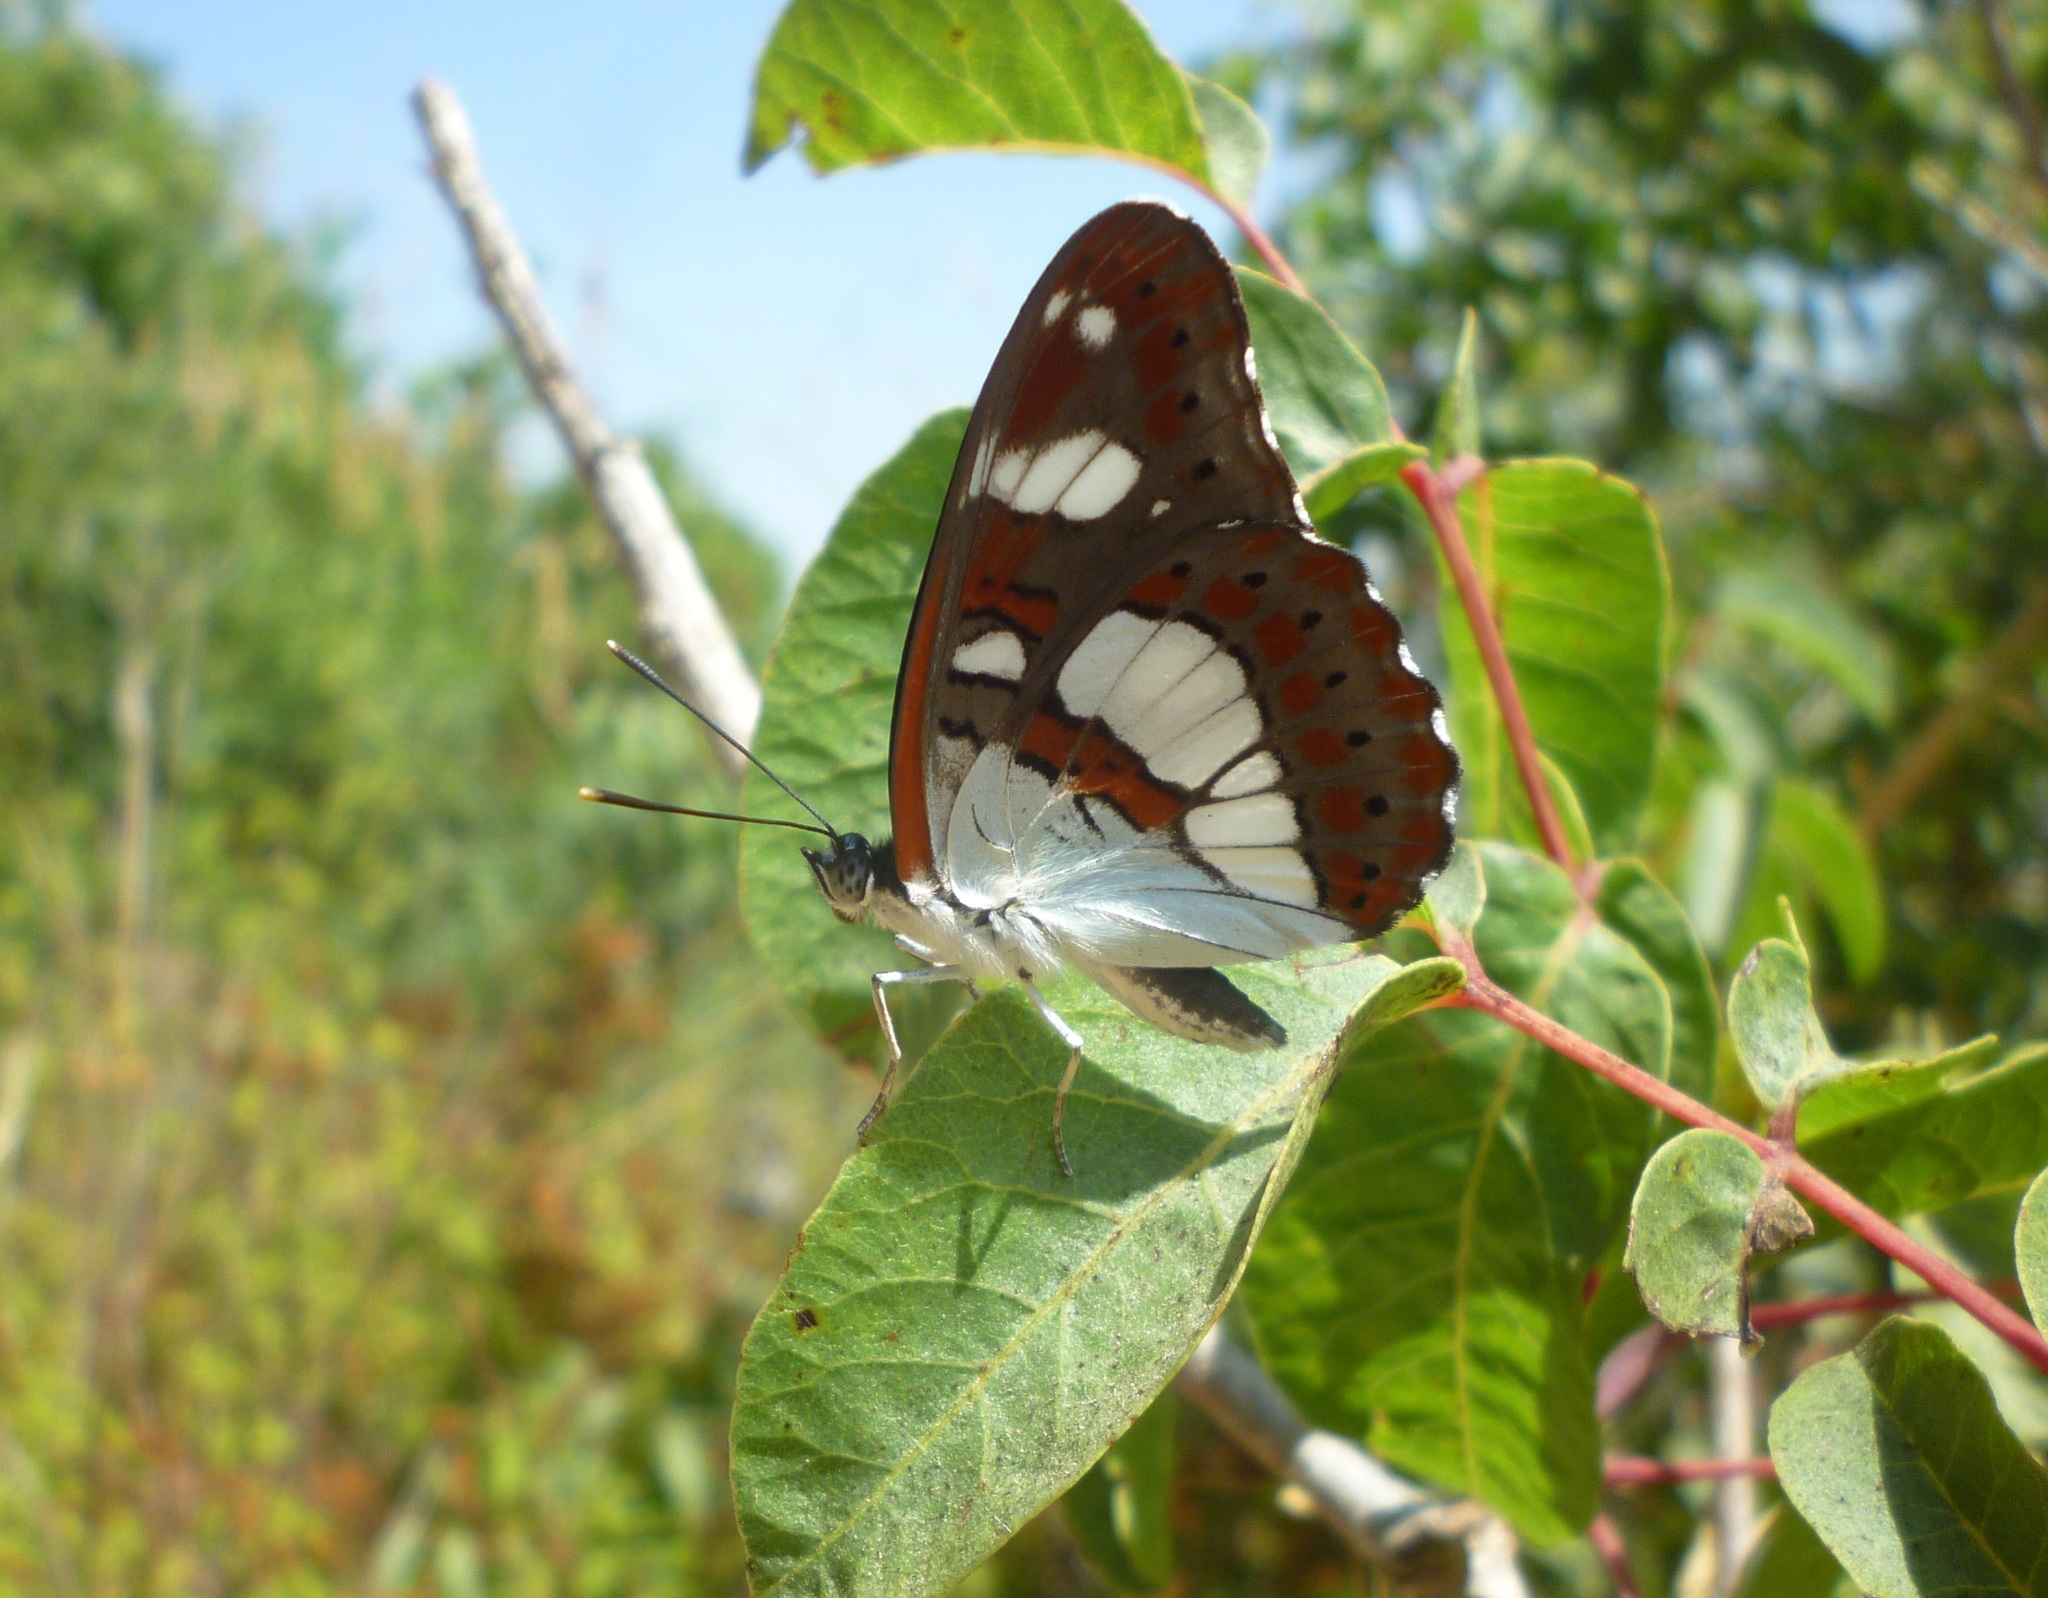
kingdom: Animalia
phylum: Arthropoda
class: Insecta
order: Lepidoptera
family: Nymphalidae
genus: Limenitis
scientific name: Limenitis reducta
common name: Southern white admiral
